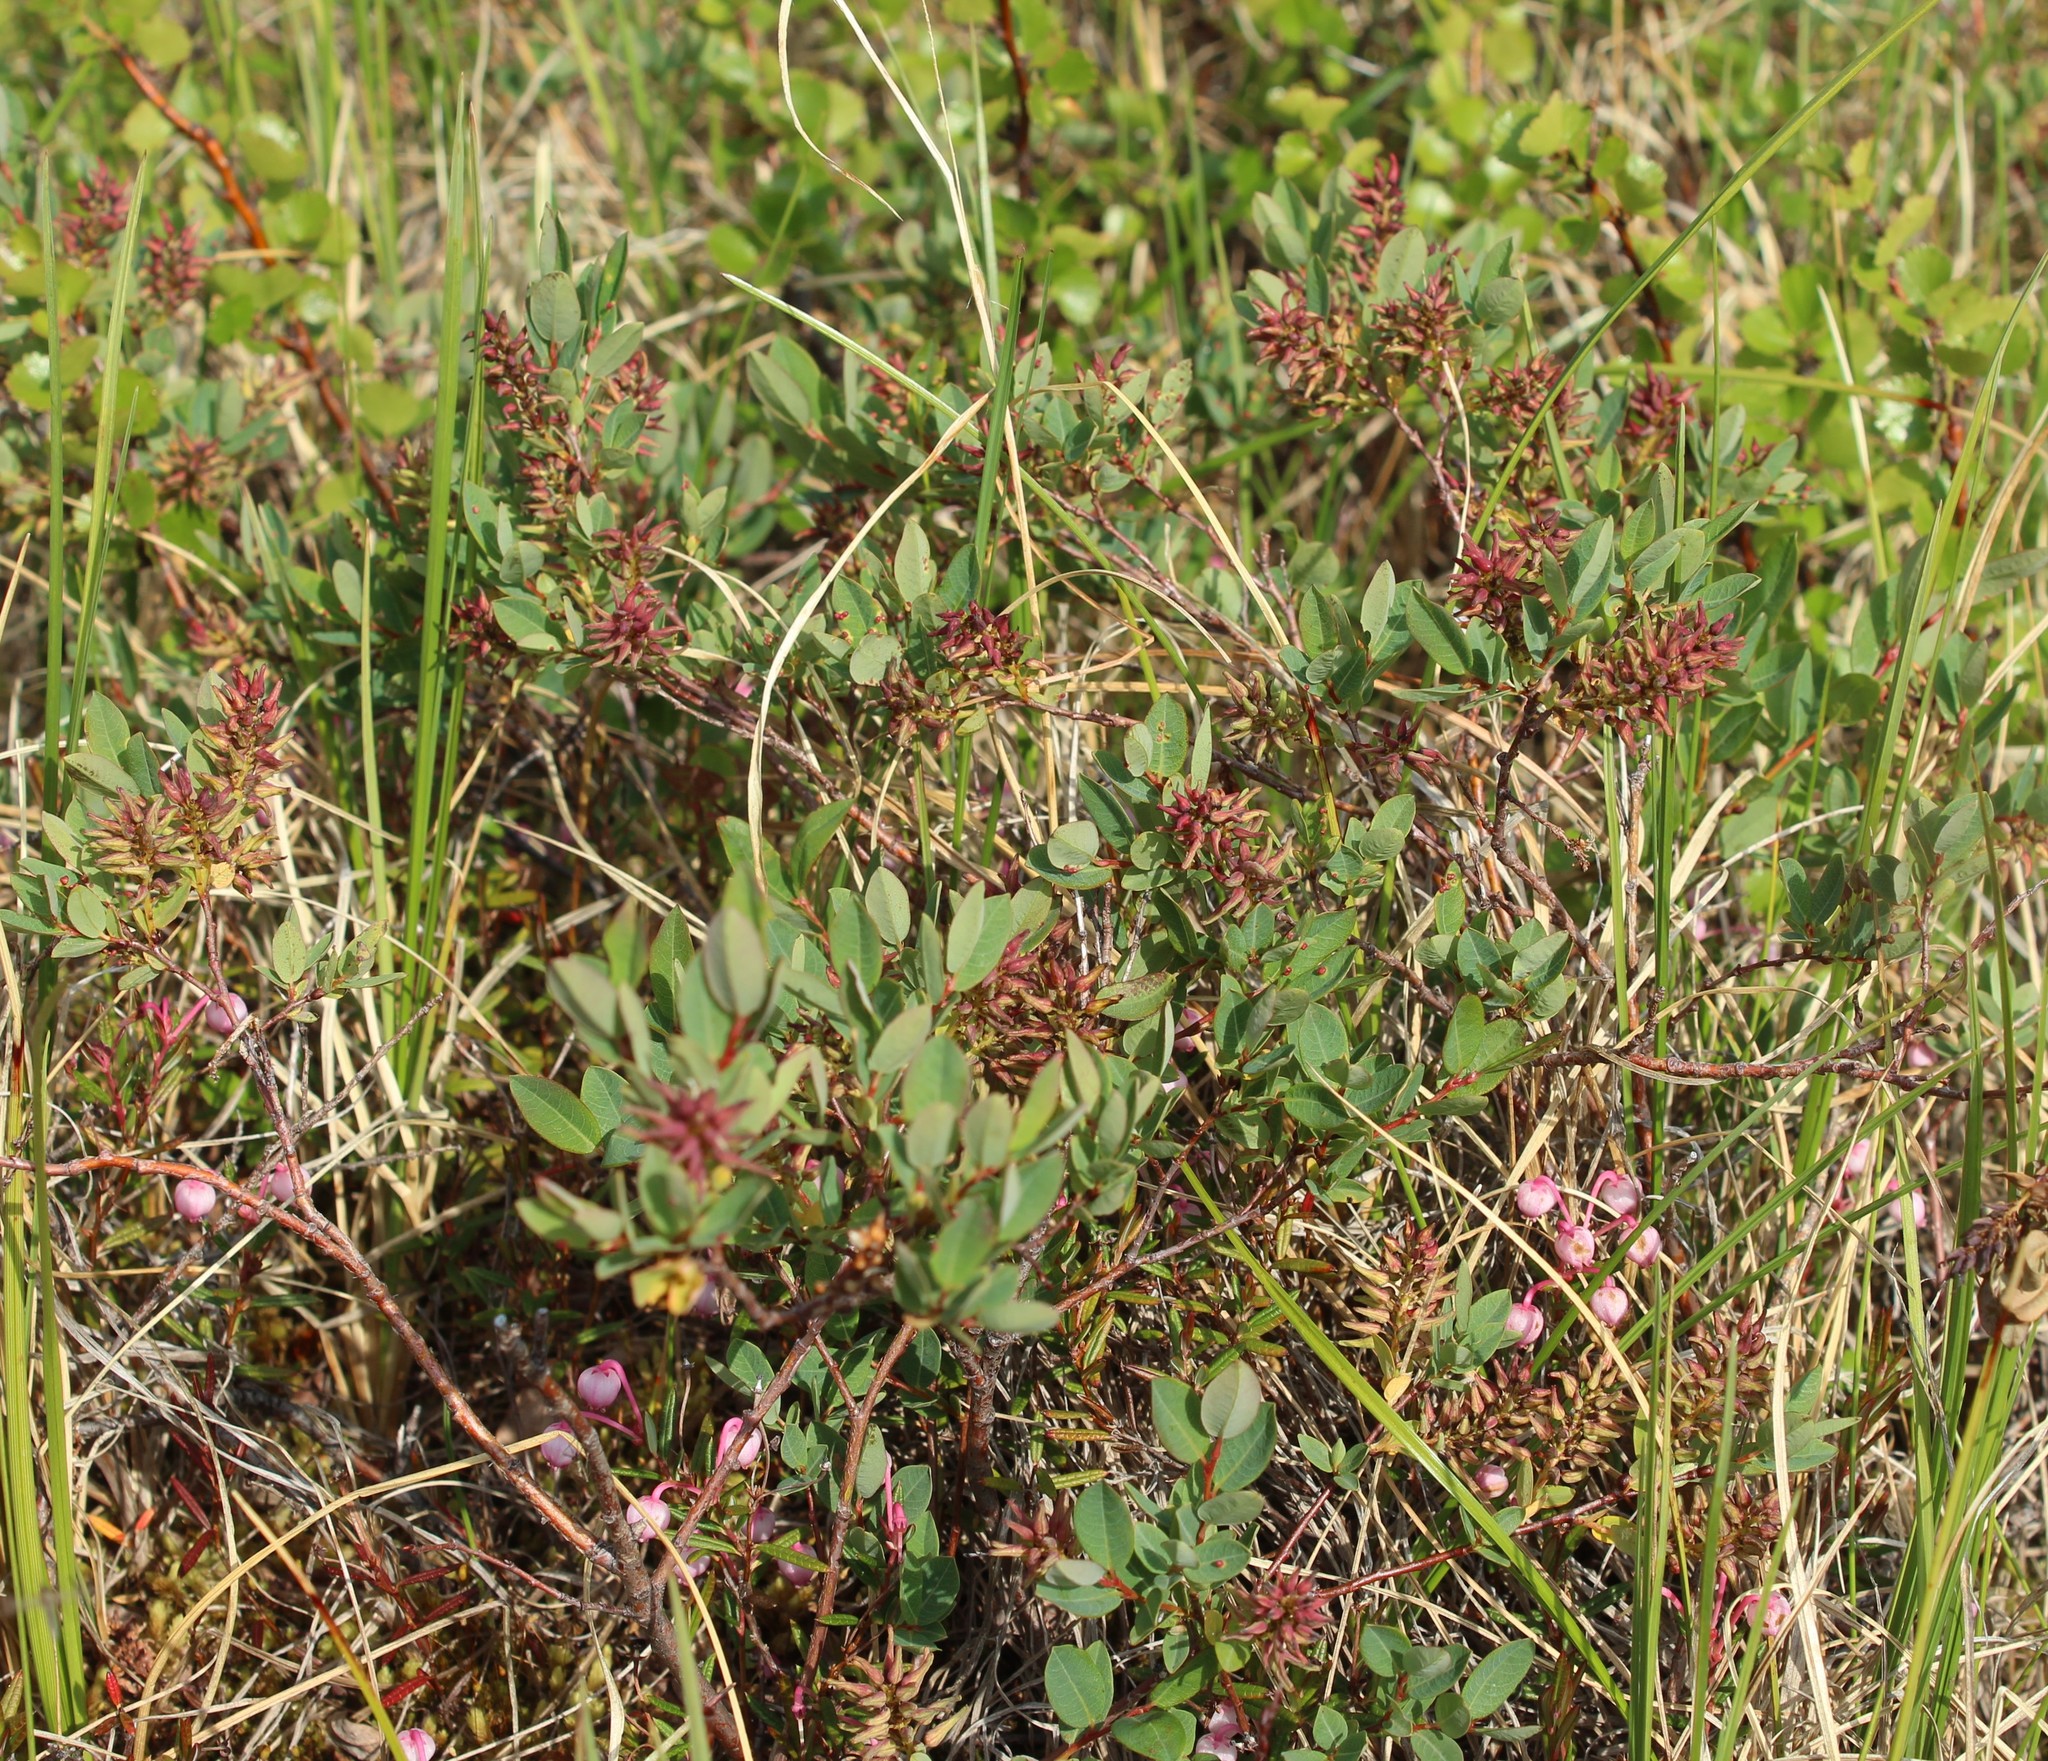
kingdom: Plantae
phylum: Tracheophyta
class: Magnoliopsida
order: Malpighiales
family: Salicaceae
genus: Salix
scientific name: Salix myrtilloides
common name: Myrtle-leaved willow
